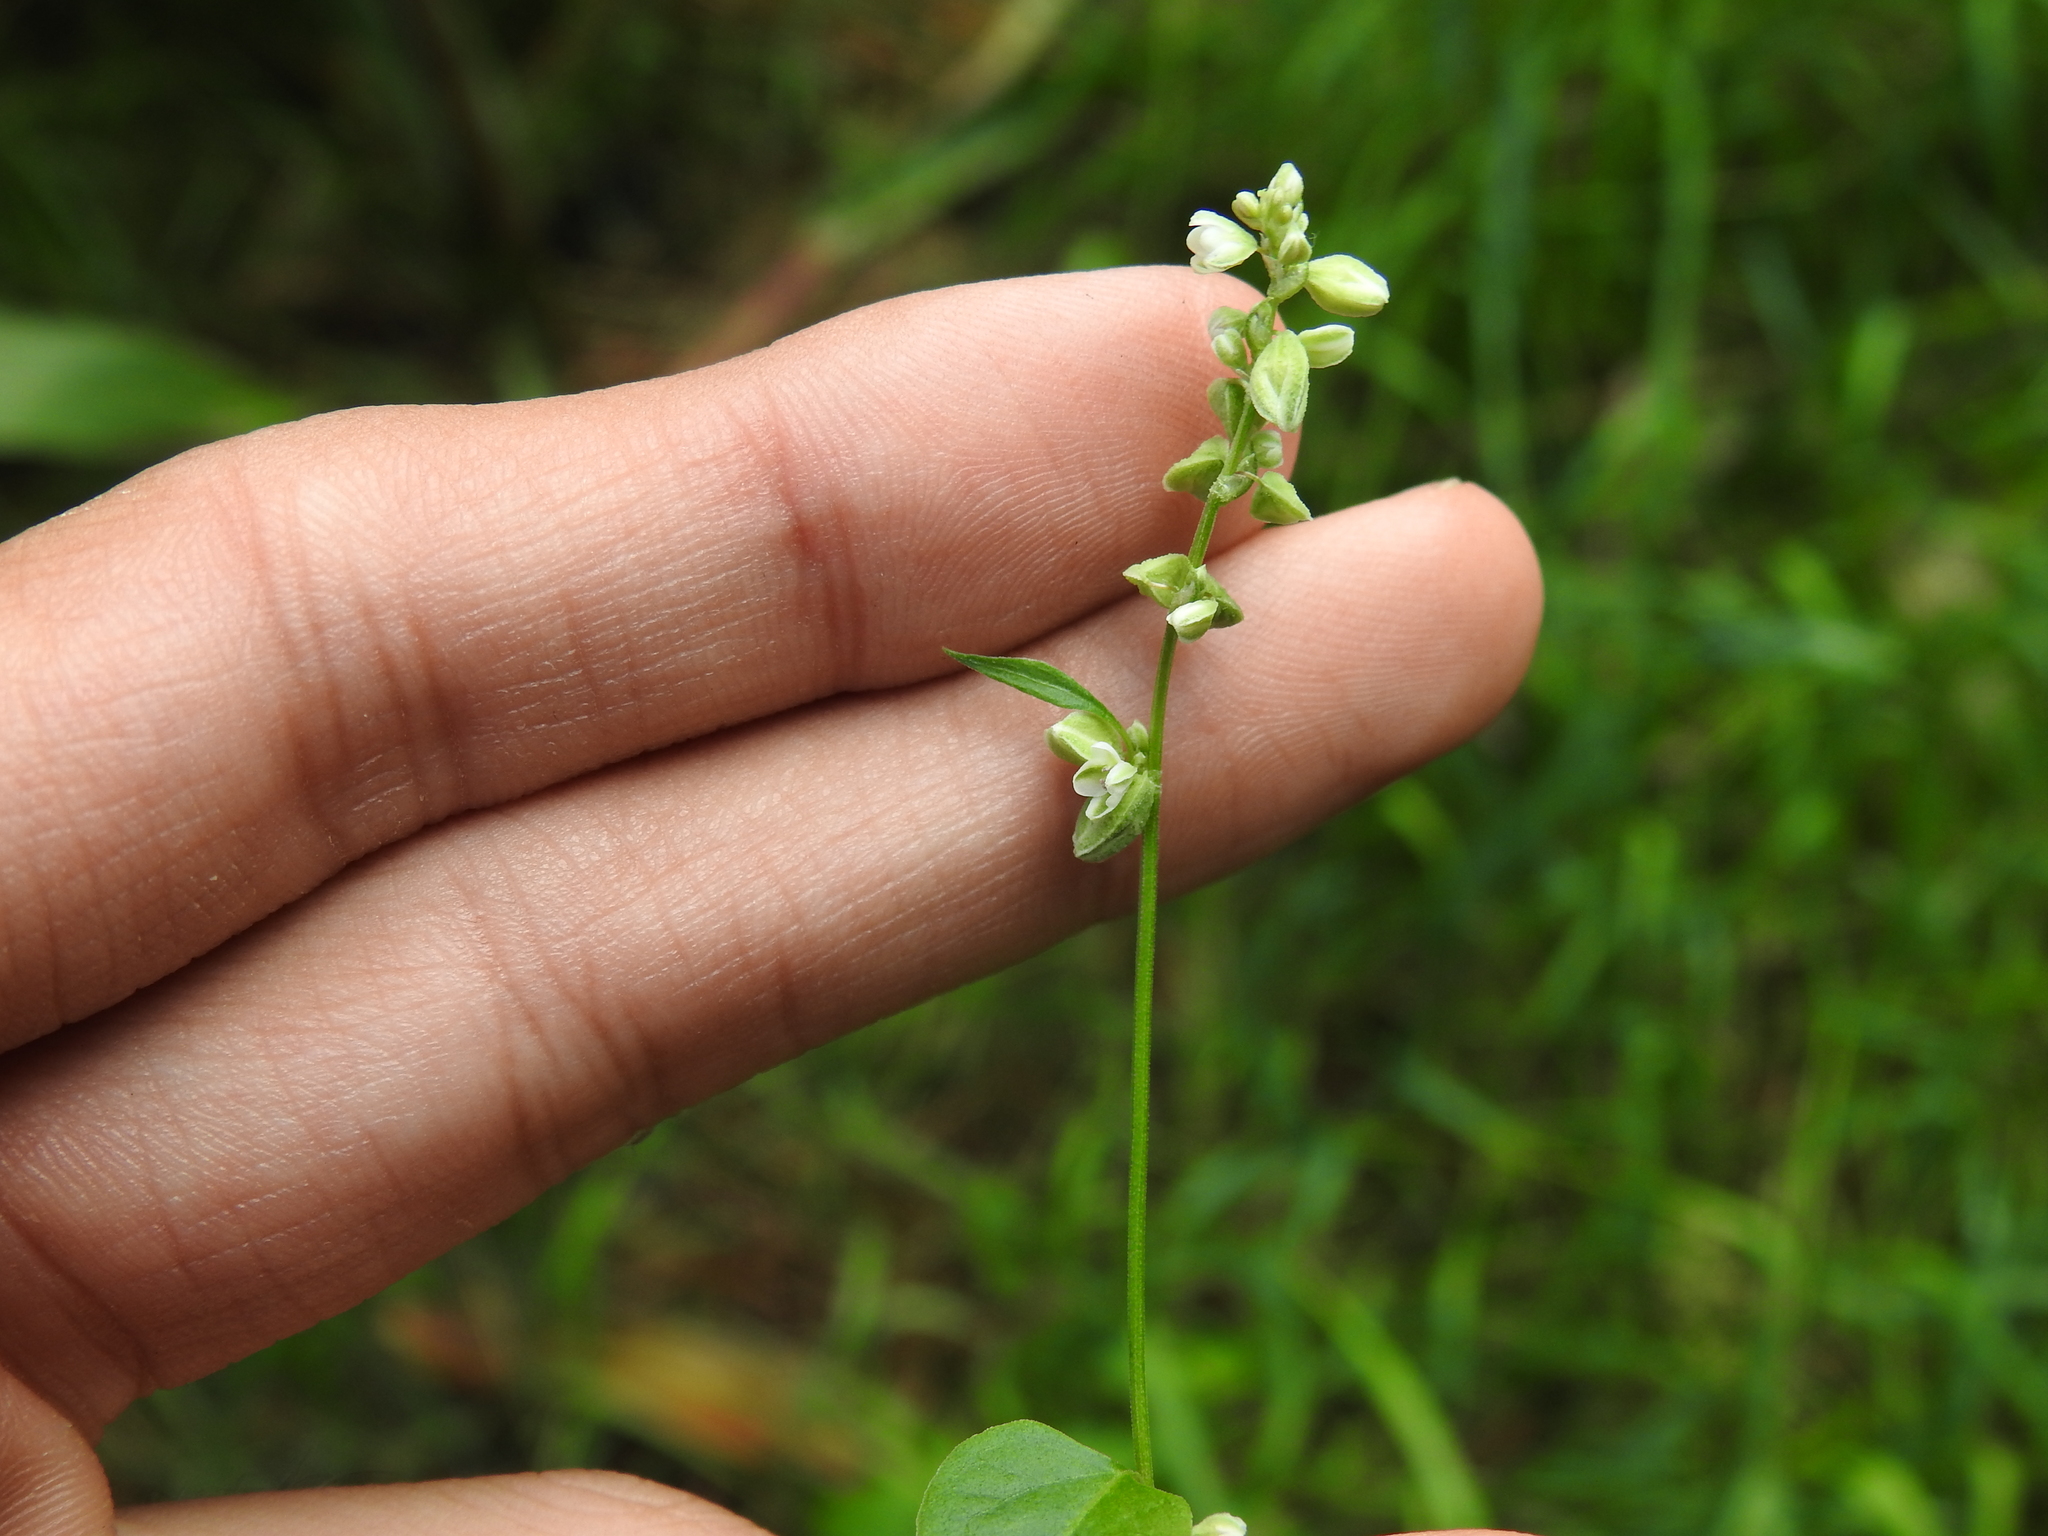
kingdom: Plantae
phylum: Tracheophyta
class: Magnoliopsida
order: Caryophyllales
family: Polygonaceae
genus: Fallopia
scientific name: Fallopia convolvulus
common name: Black bindweed
